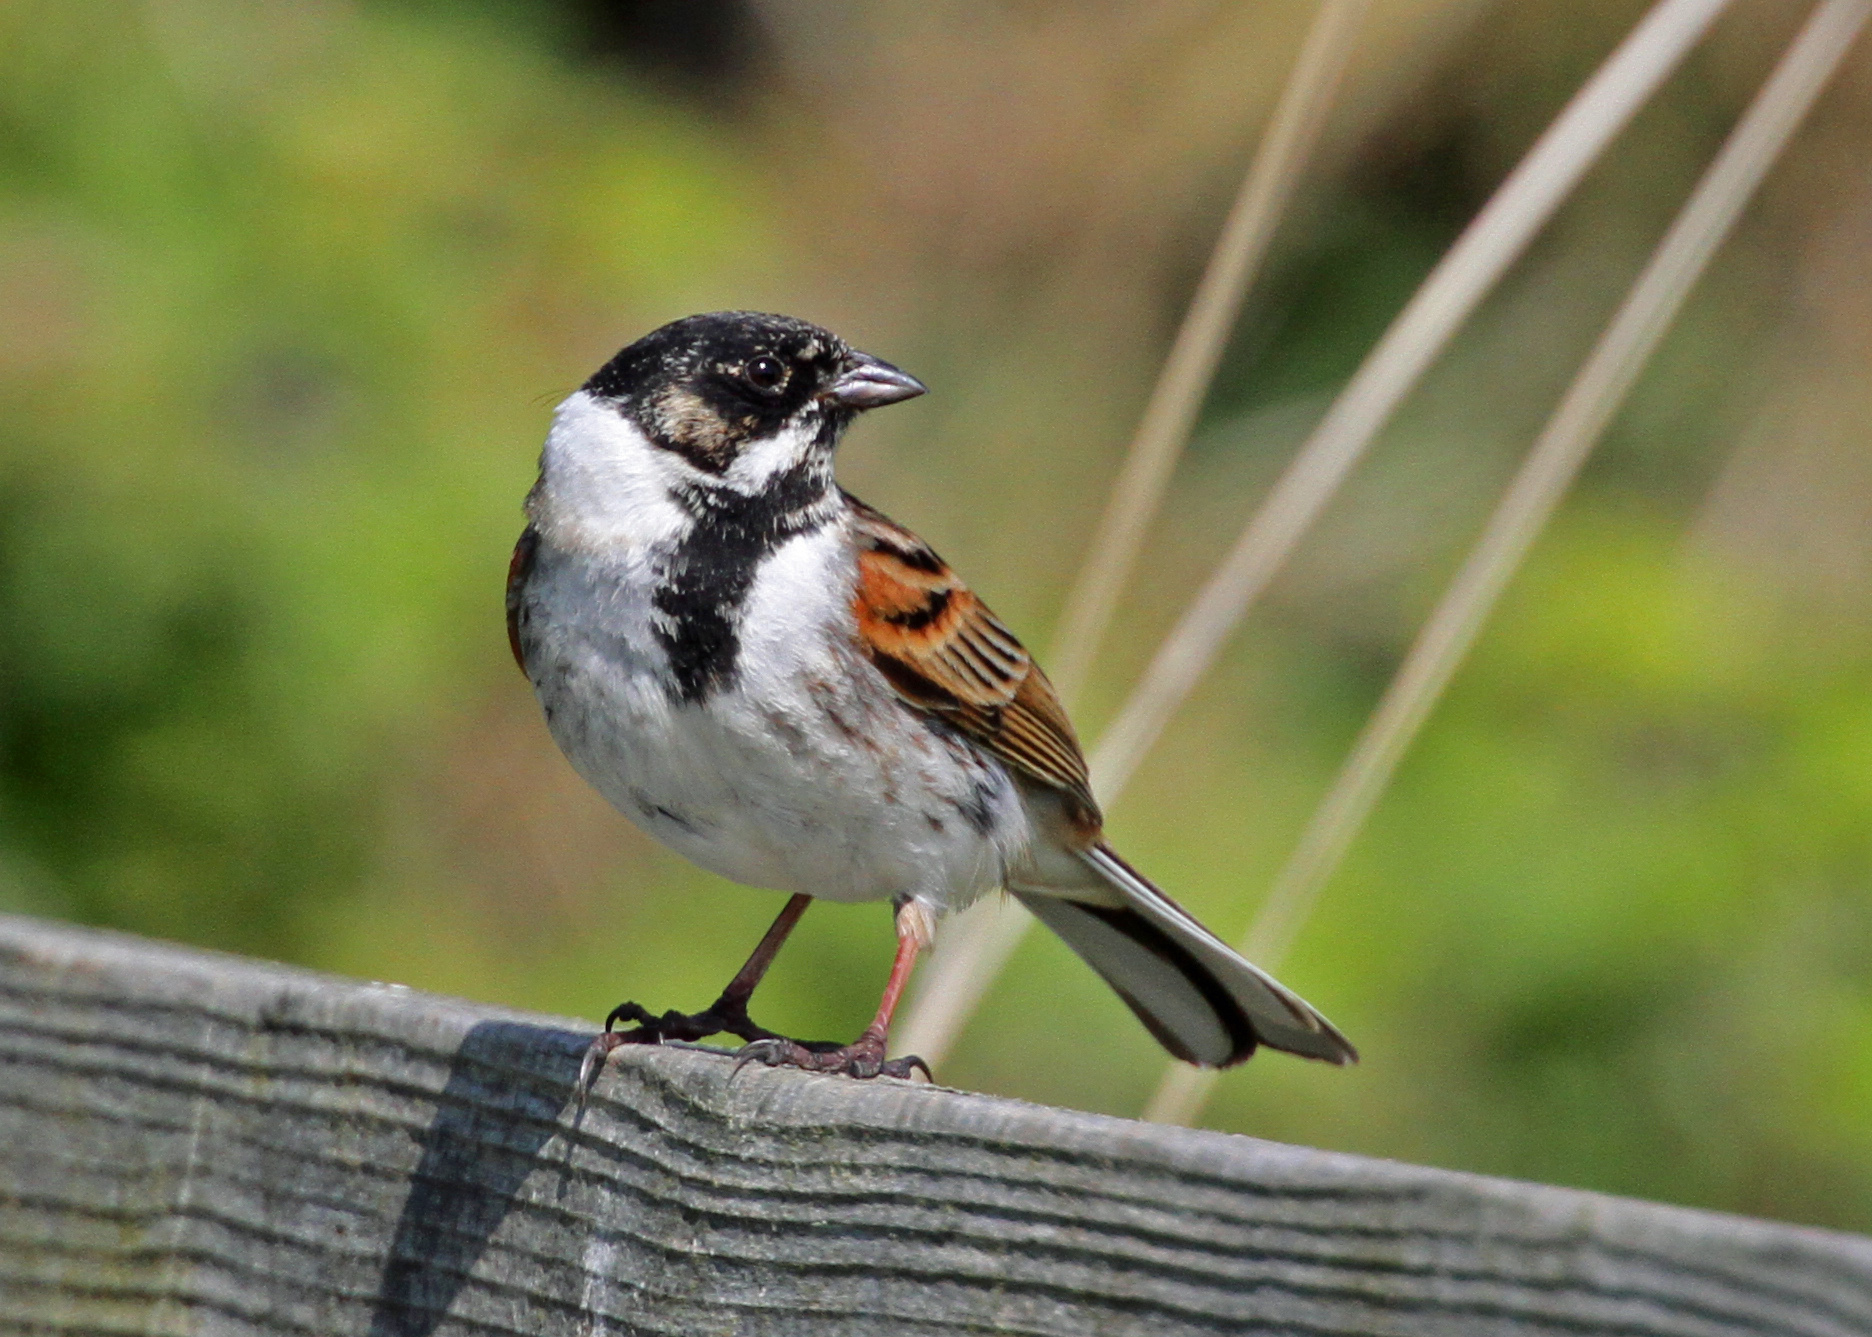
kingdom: Animalia
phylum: Chordata
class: Aves
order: Passeriformes
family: Emberizidae
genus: Emberiza
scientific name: Emberiza schoeniclus
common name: Reed bunting
